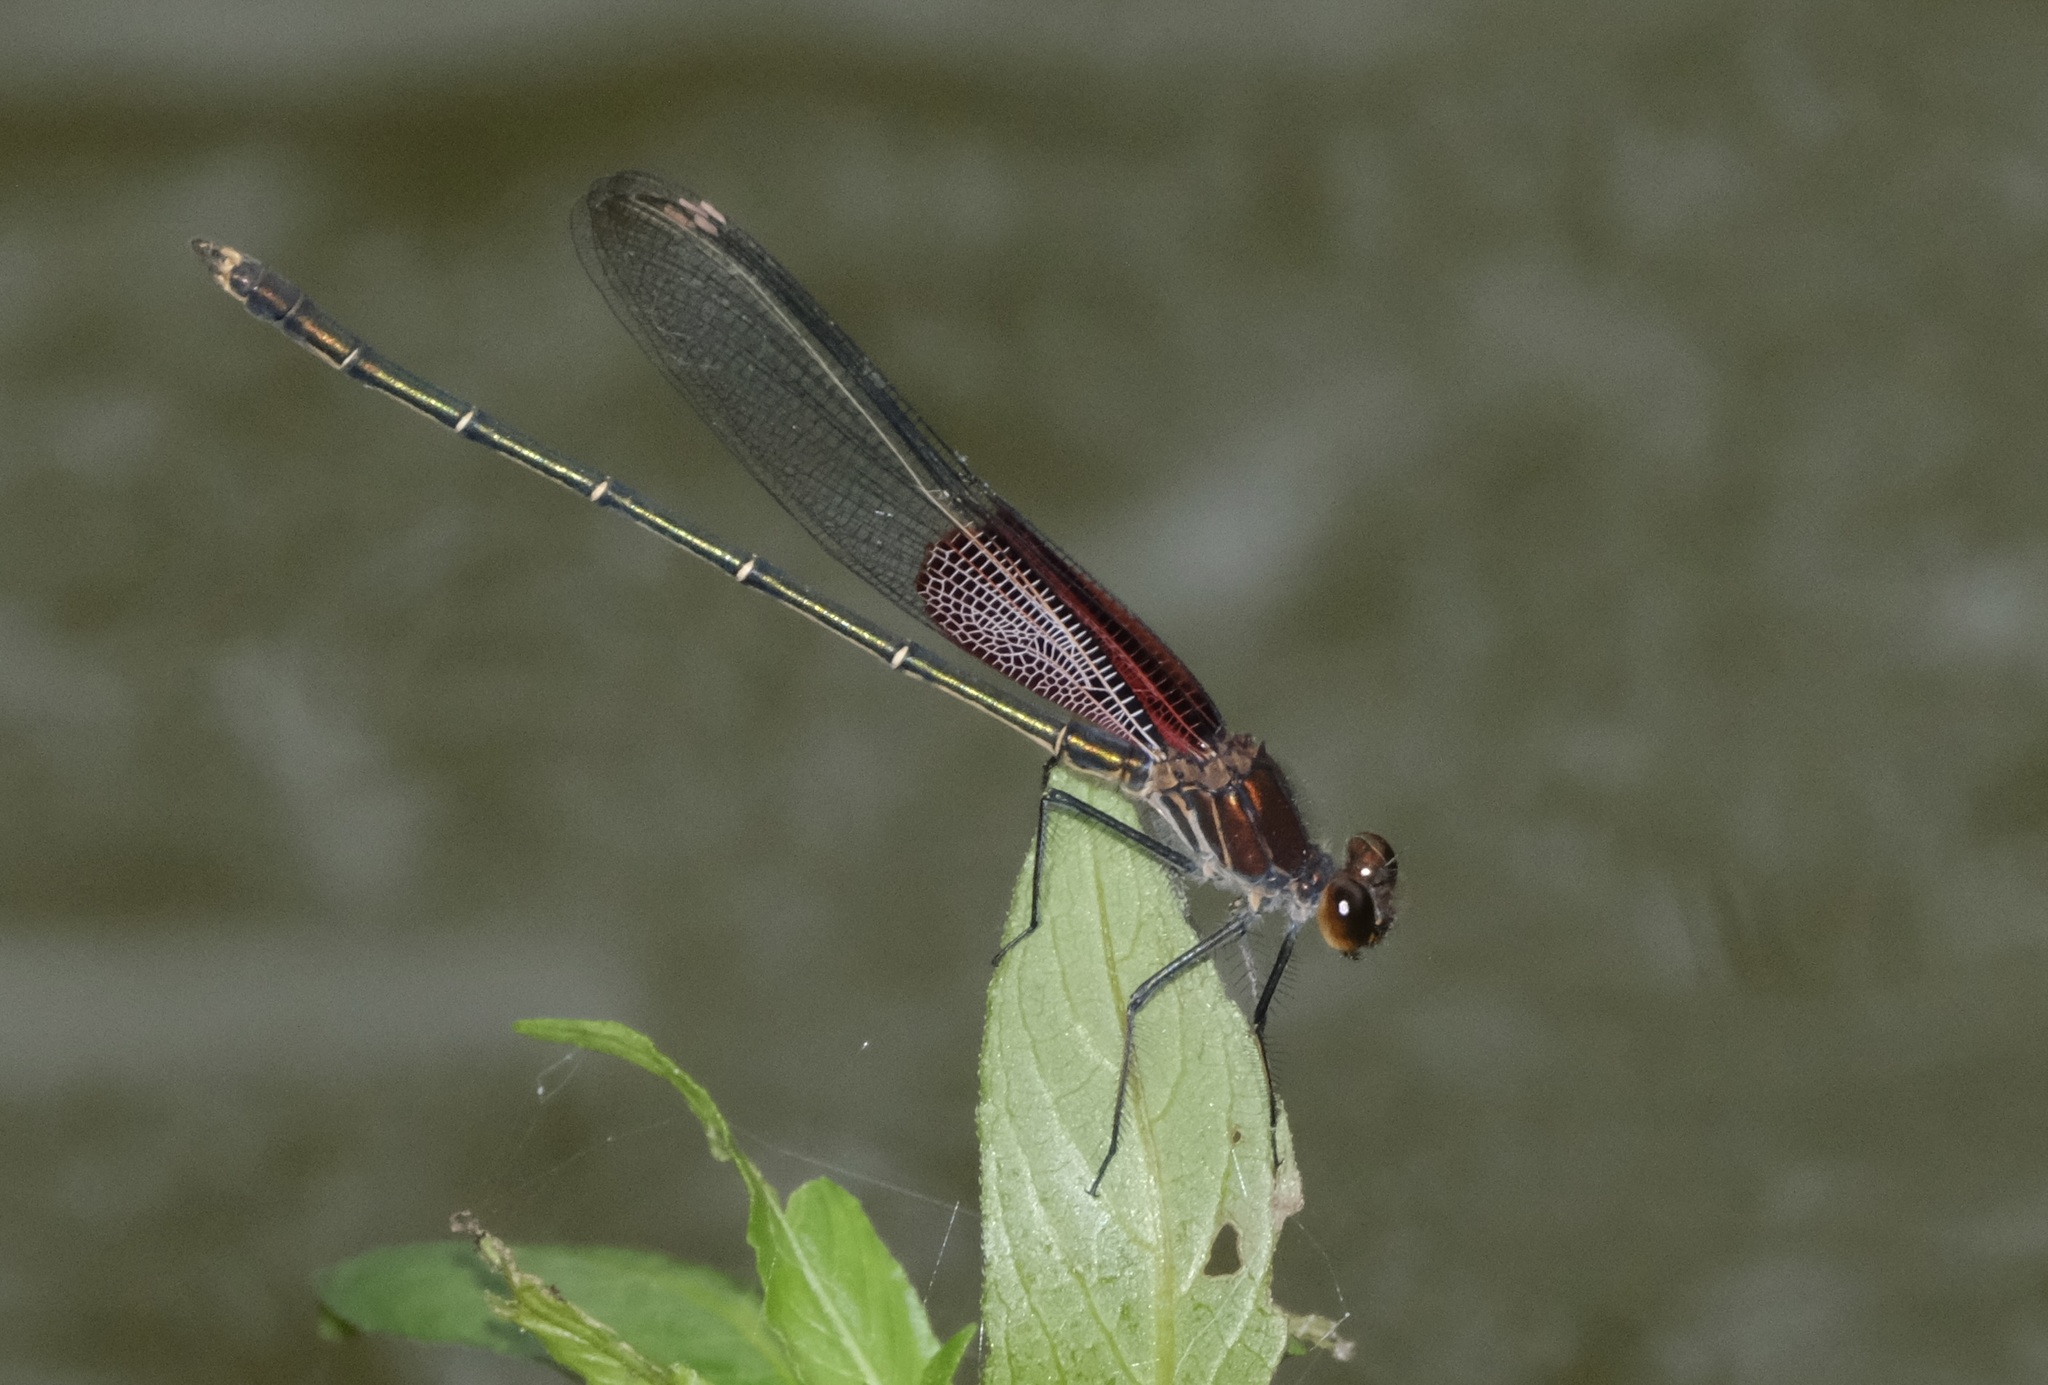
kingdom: Animalia
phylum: Arthropoda
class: Insecta
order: Odonata
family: Calopterygidae
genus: Hetaerina
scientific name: Hetaerina americana
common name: American rubyspot
